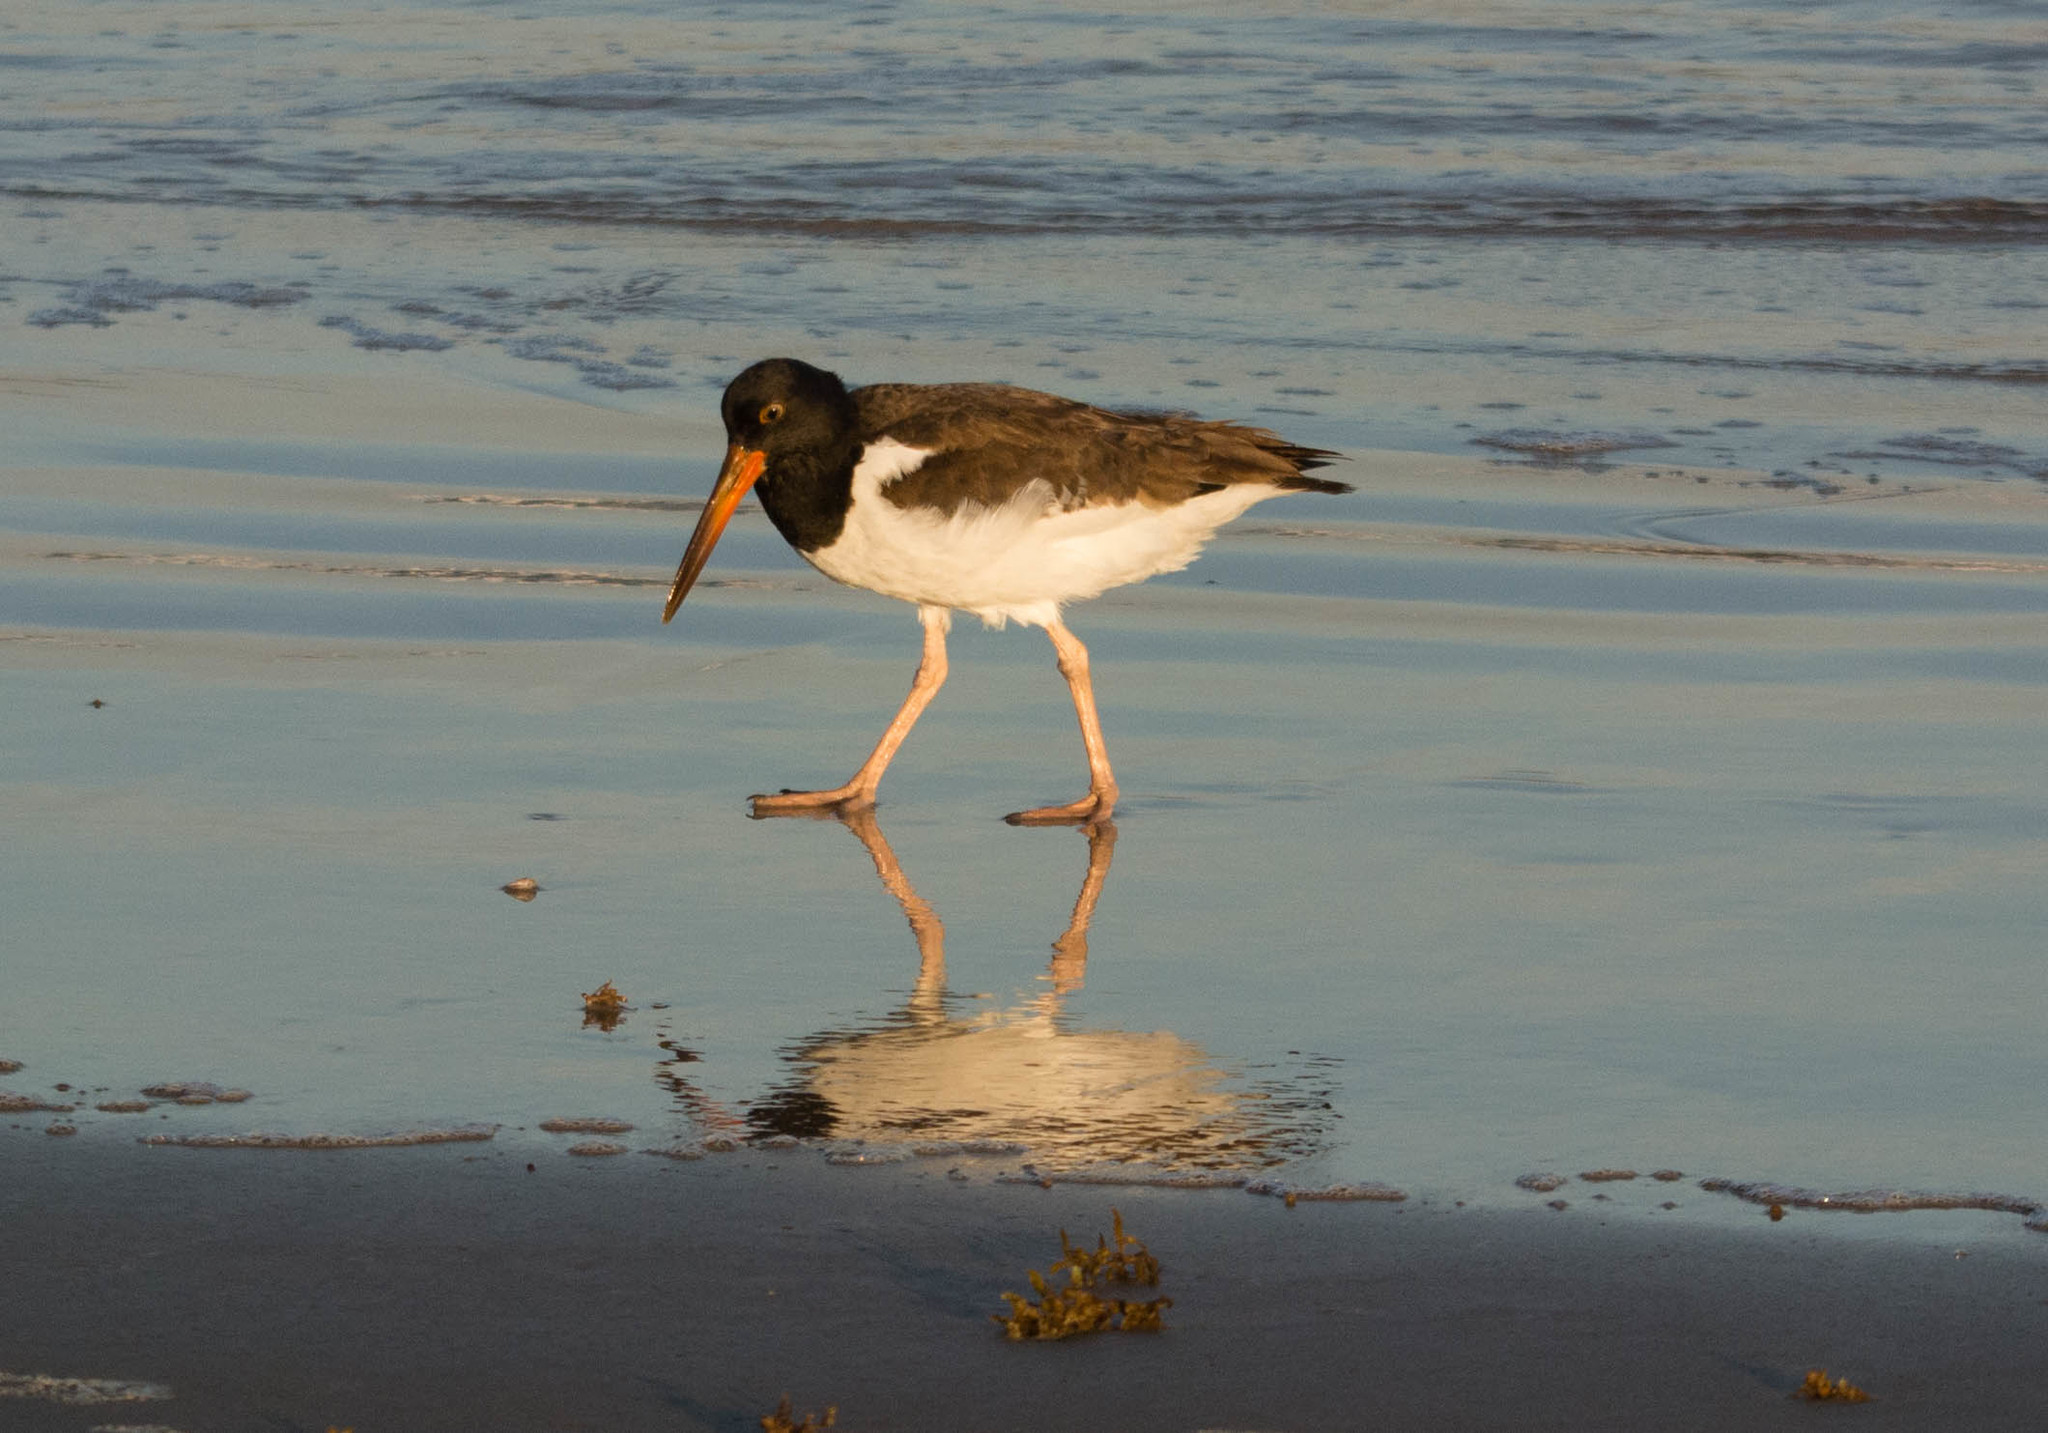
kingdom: Animalia
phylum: Chordata
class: Aves
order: Charadriiformes
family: Haematopodidae
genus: Haematopus
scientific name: Haematopus palliatus
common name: American oystercatcher
